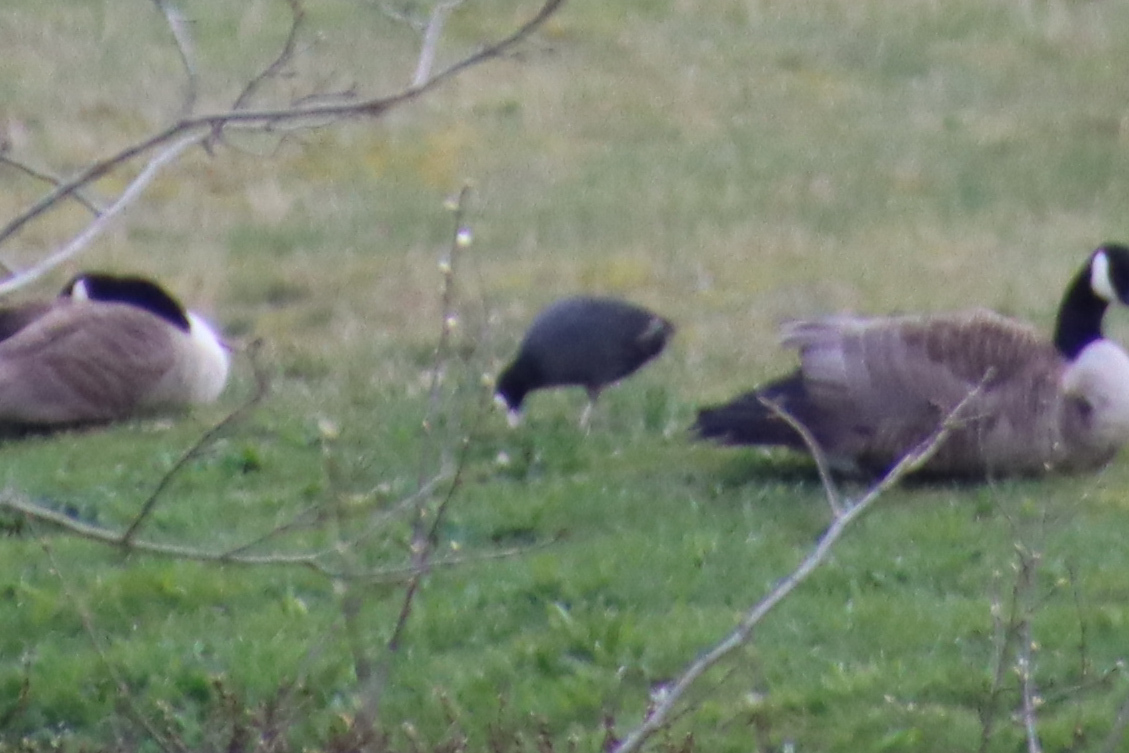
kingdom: Animalia
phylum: Chordata
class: Aves
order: Gruiformes
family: Rallidae
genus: Fulica
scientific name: Fulica atra
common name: Eurasian coot
